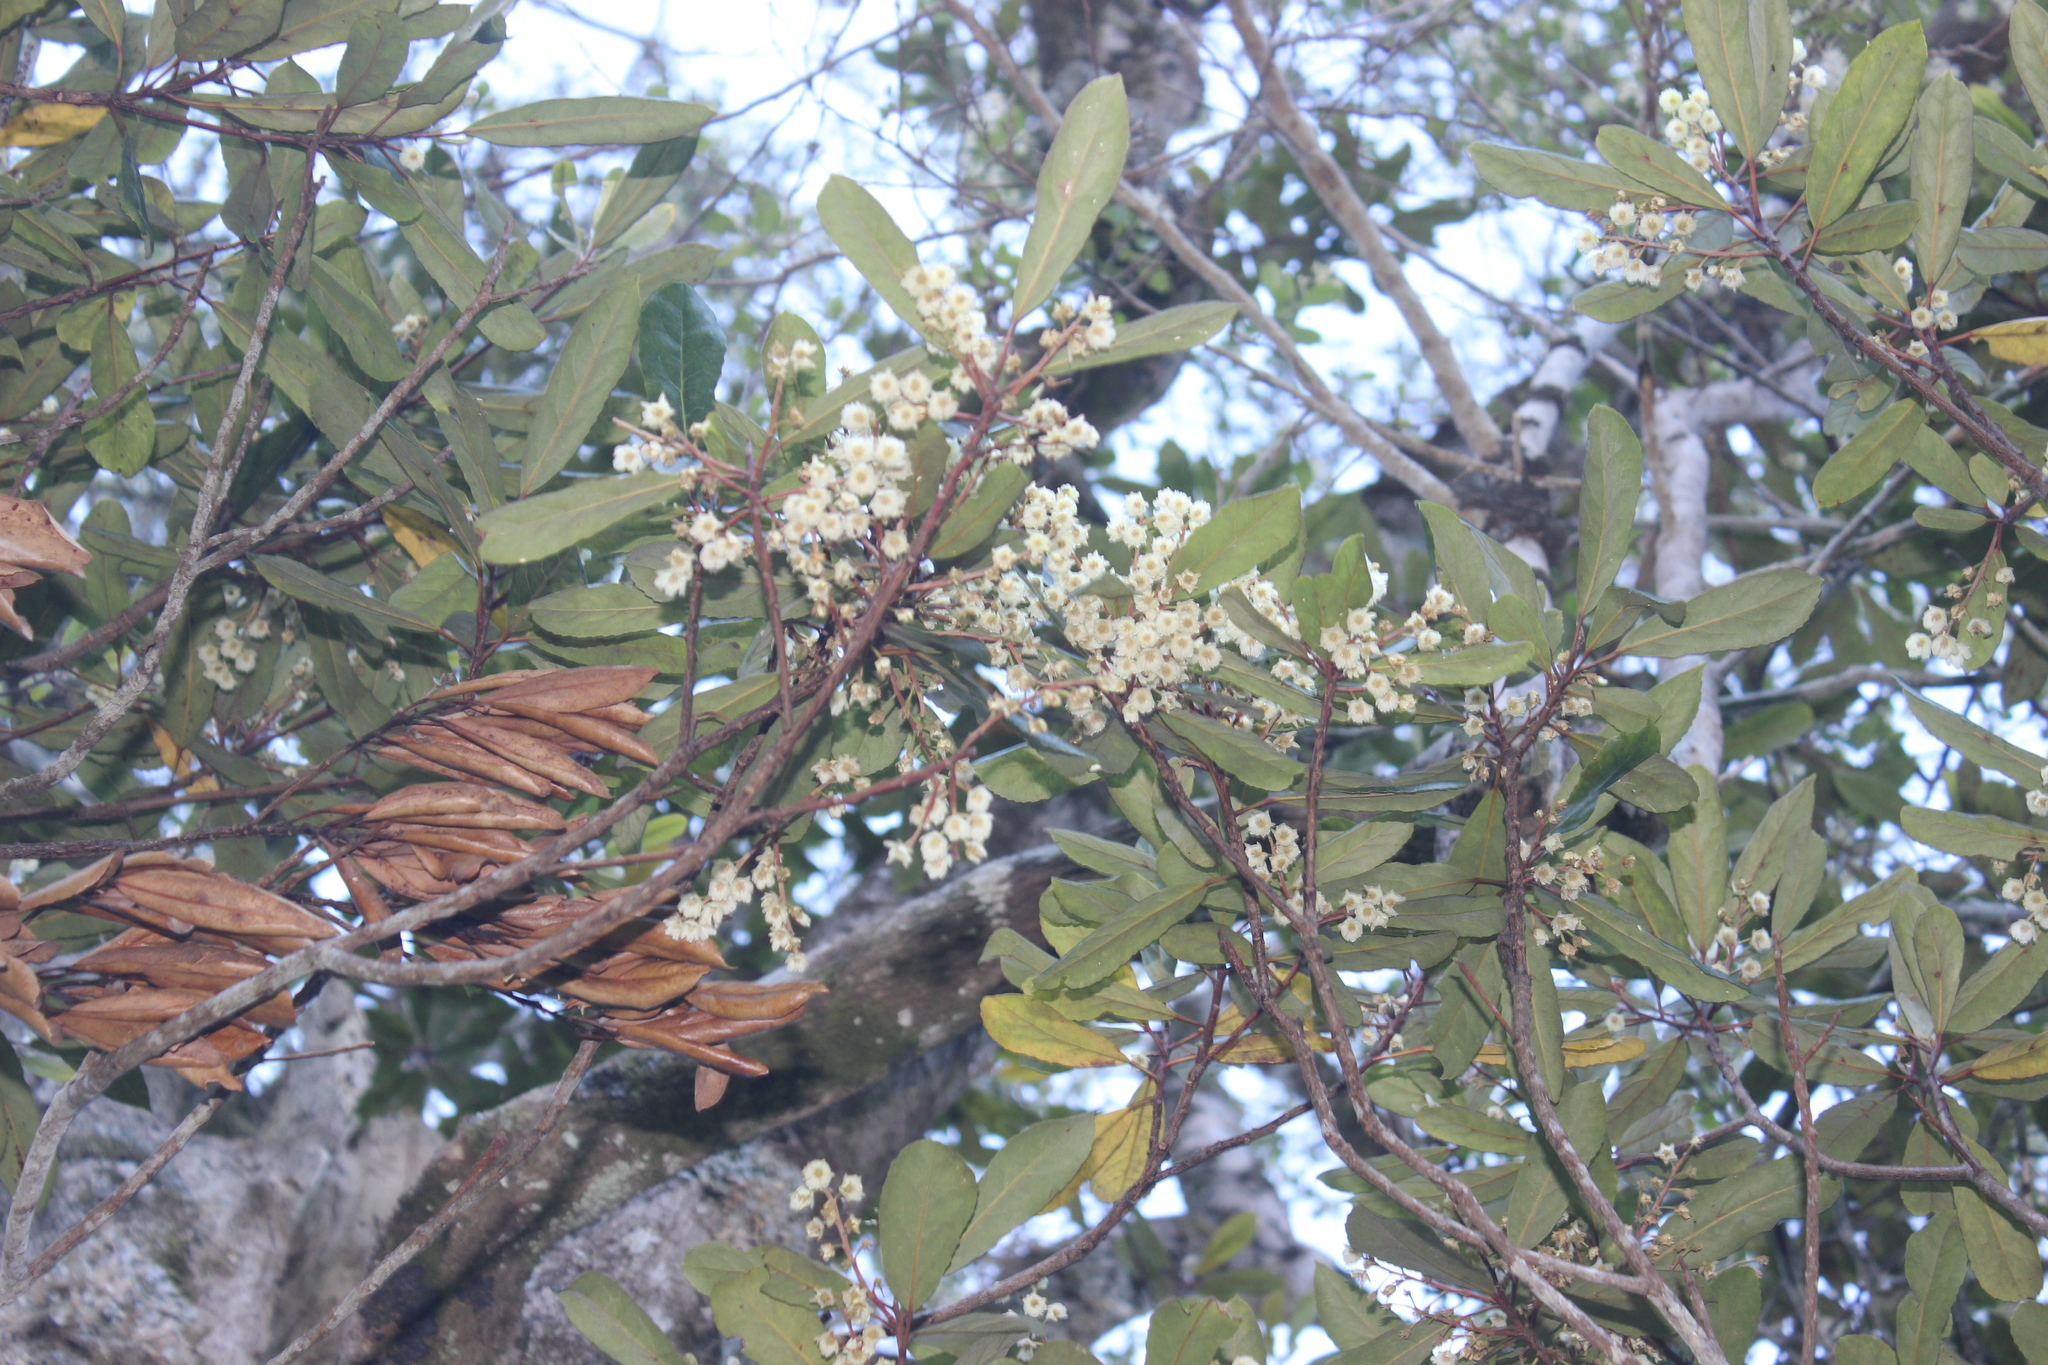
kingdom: Plantae
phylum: Tracheophyta
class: Magnoliopsida
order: Oxalidales
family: Elaeocarpaceae
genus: Elaeocarpus
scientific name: Elaeocarpus dentatus
